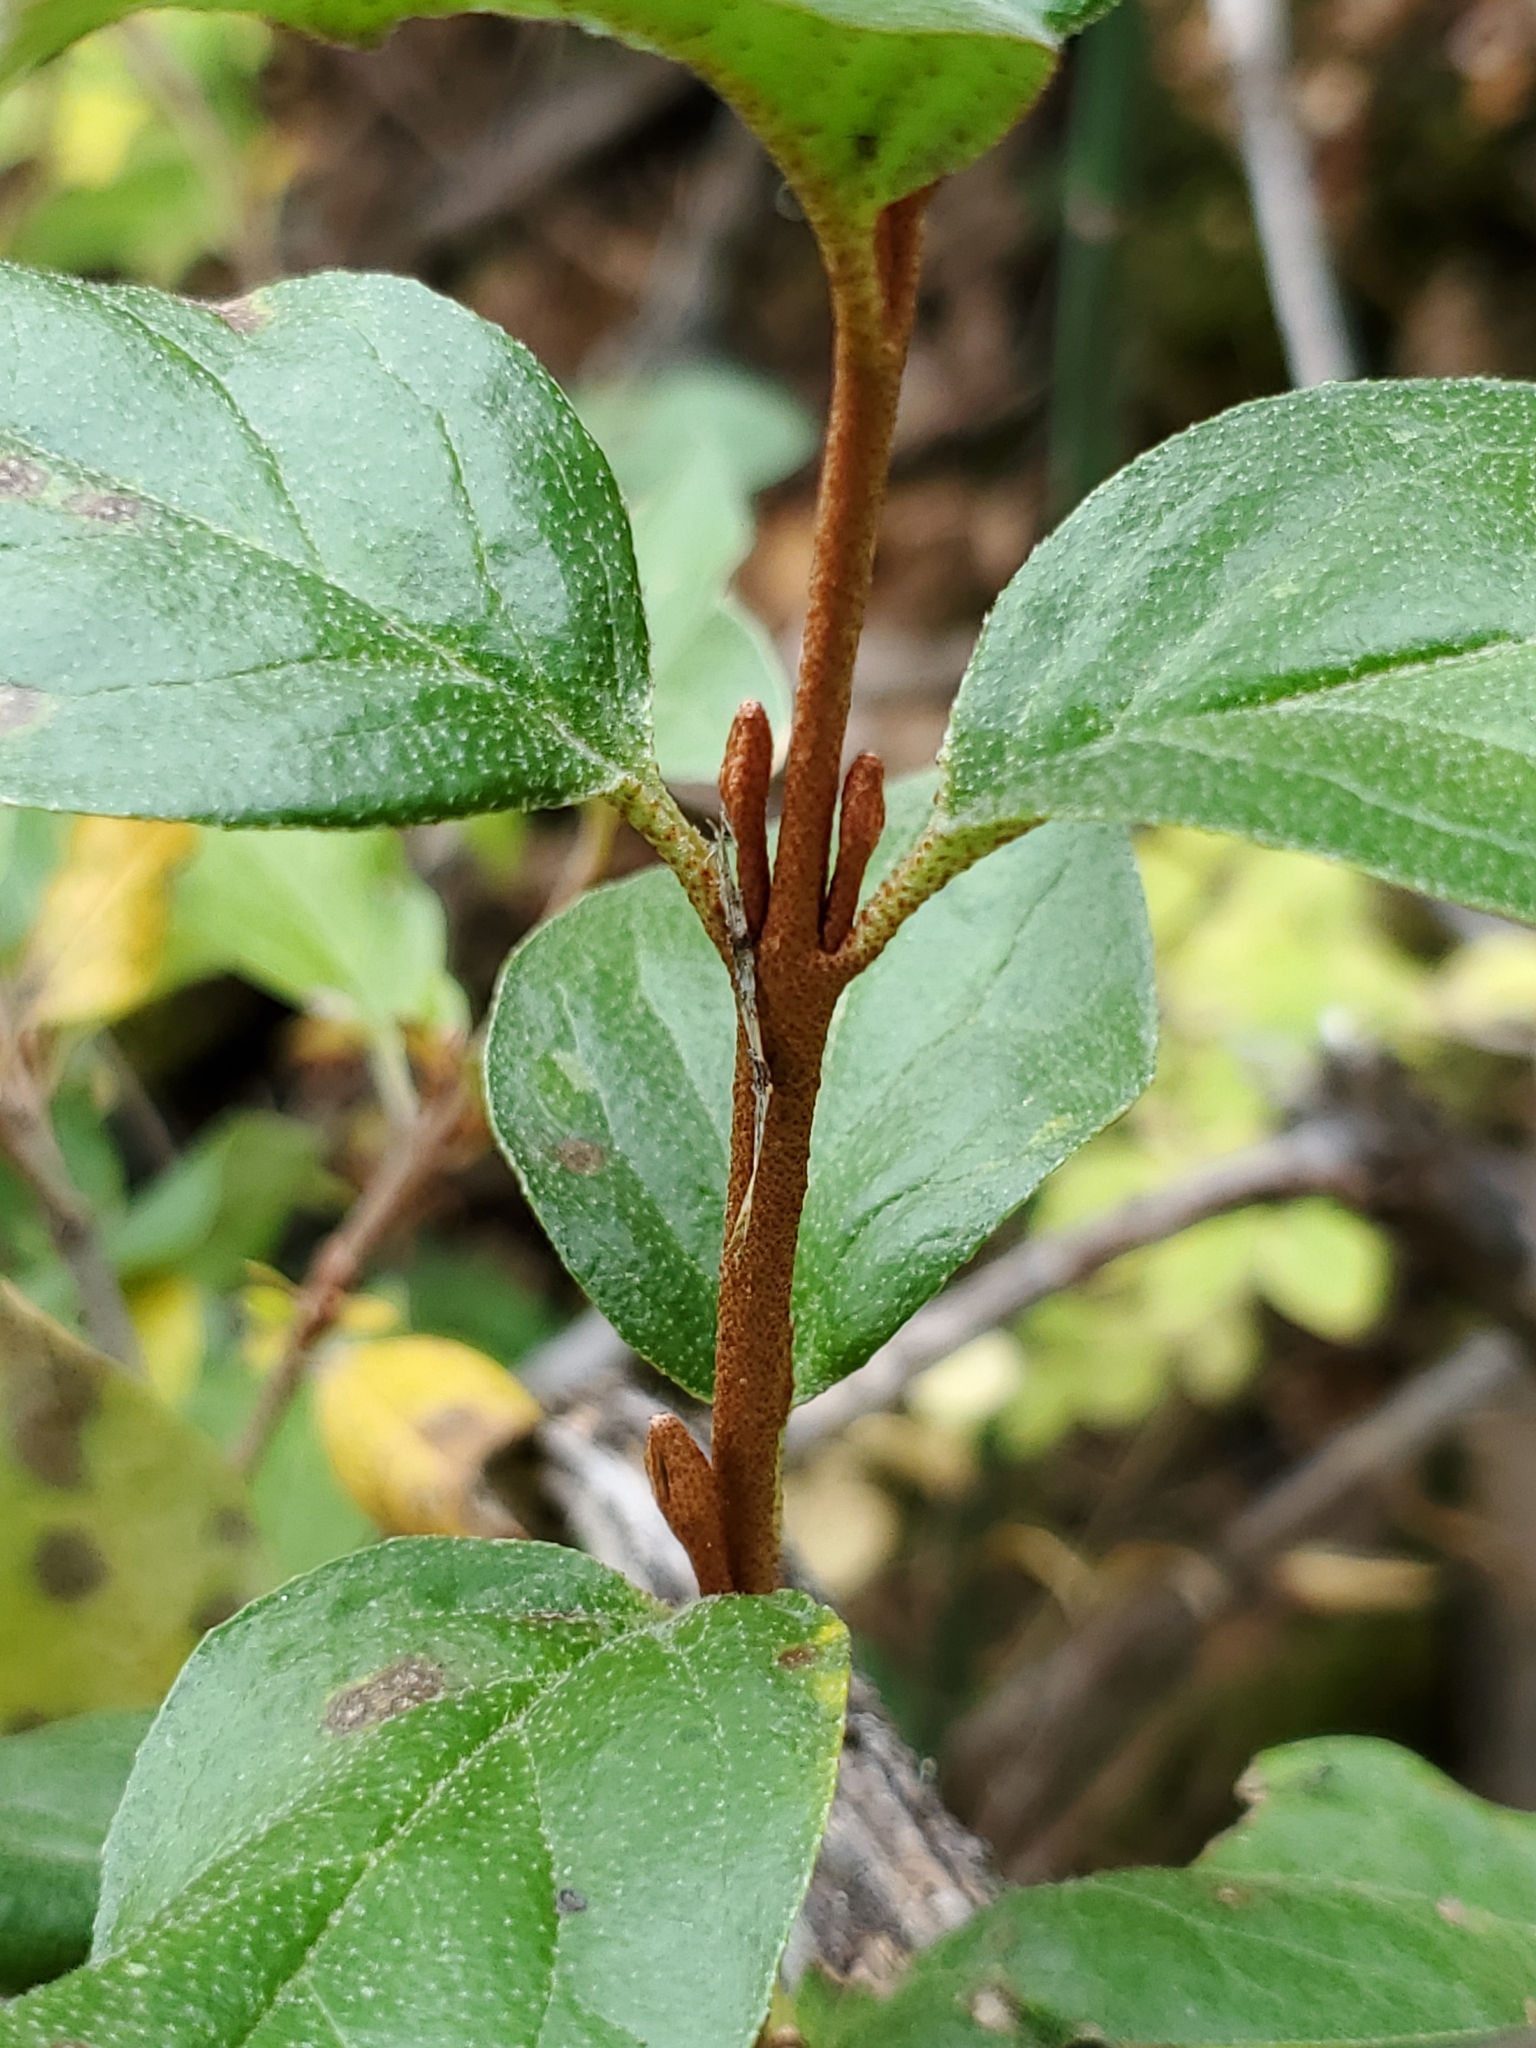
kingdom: Plantae
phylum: Tracheophyta
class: Magnoliopsida
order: Rosales
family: Elaeagnaceae
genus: Shepherdia
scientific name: Shepherdia canadensis
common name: Soapberry
